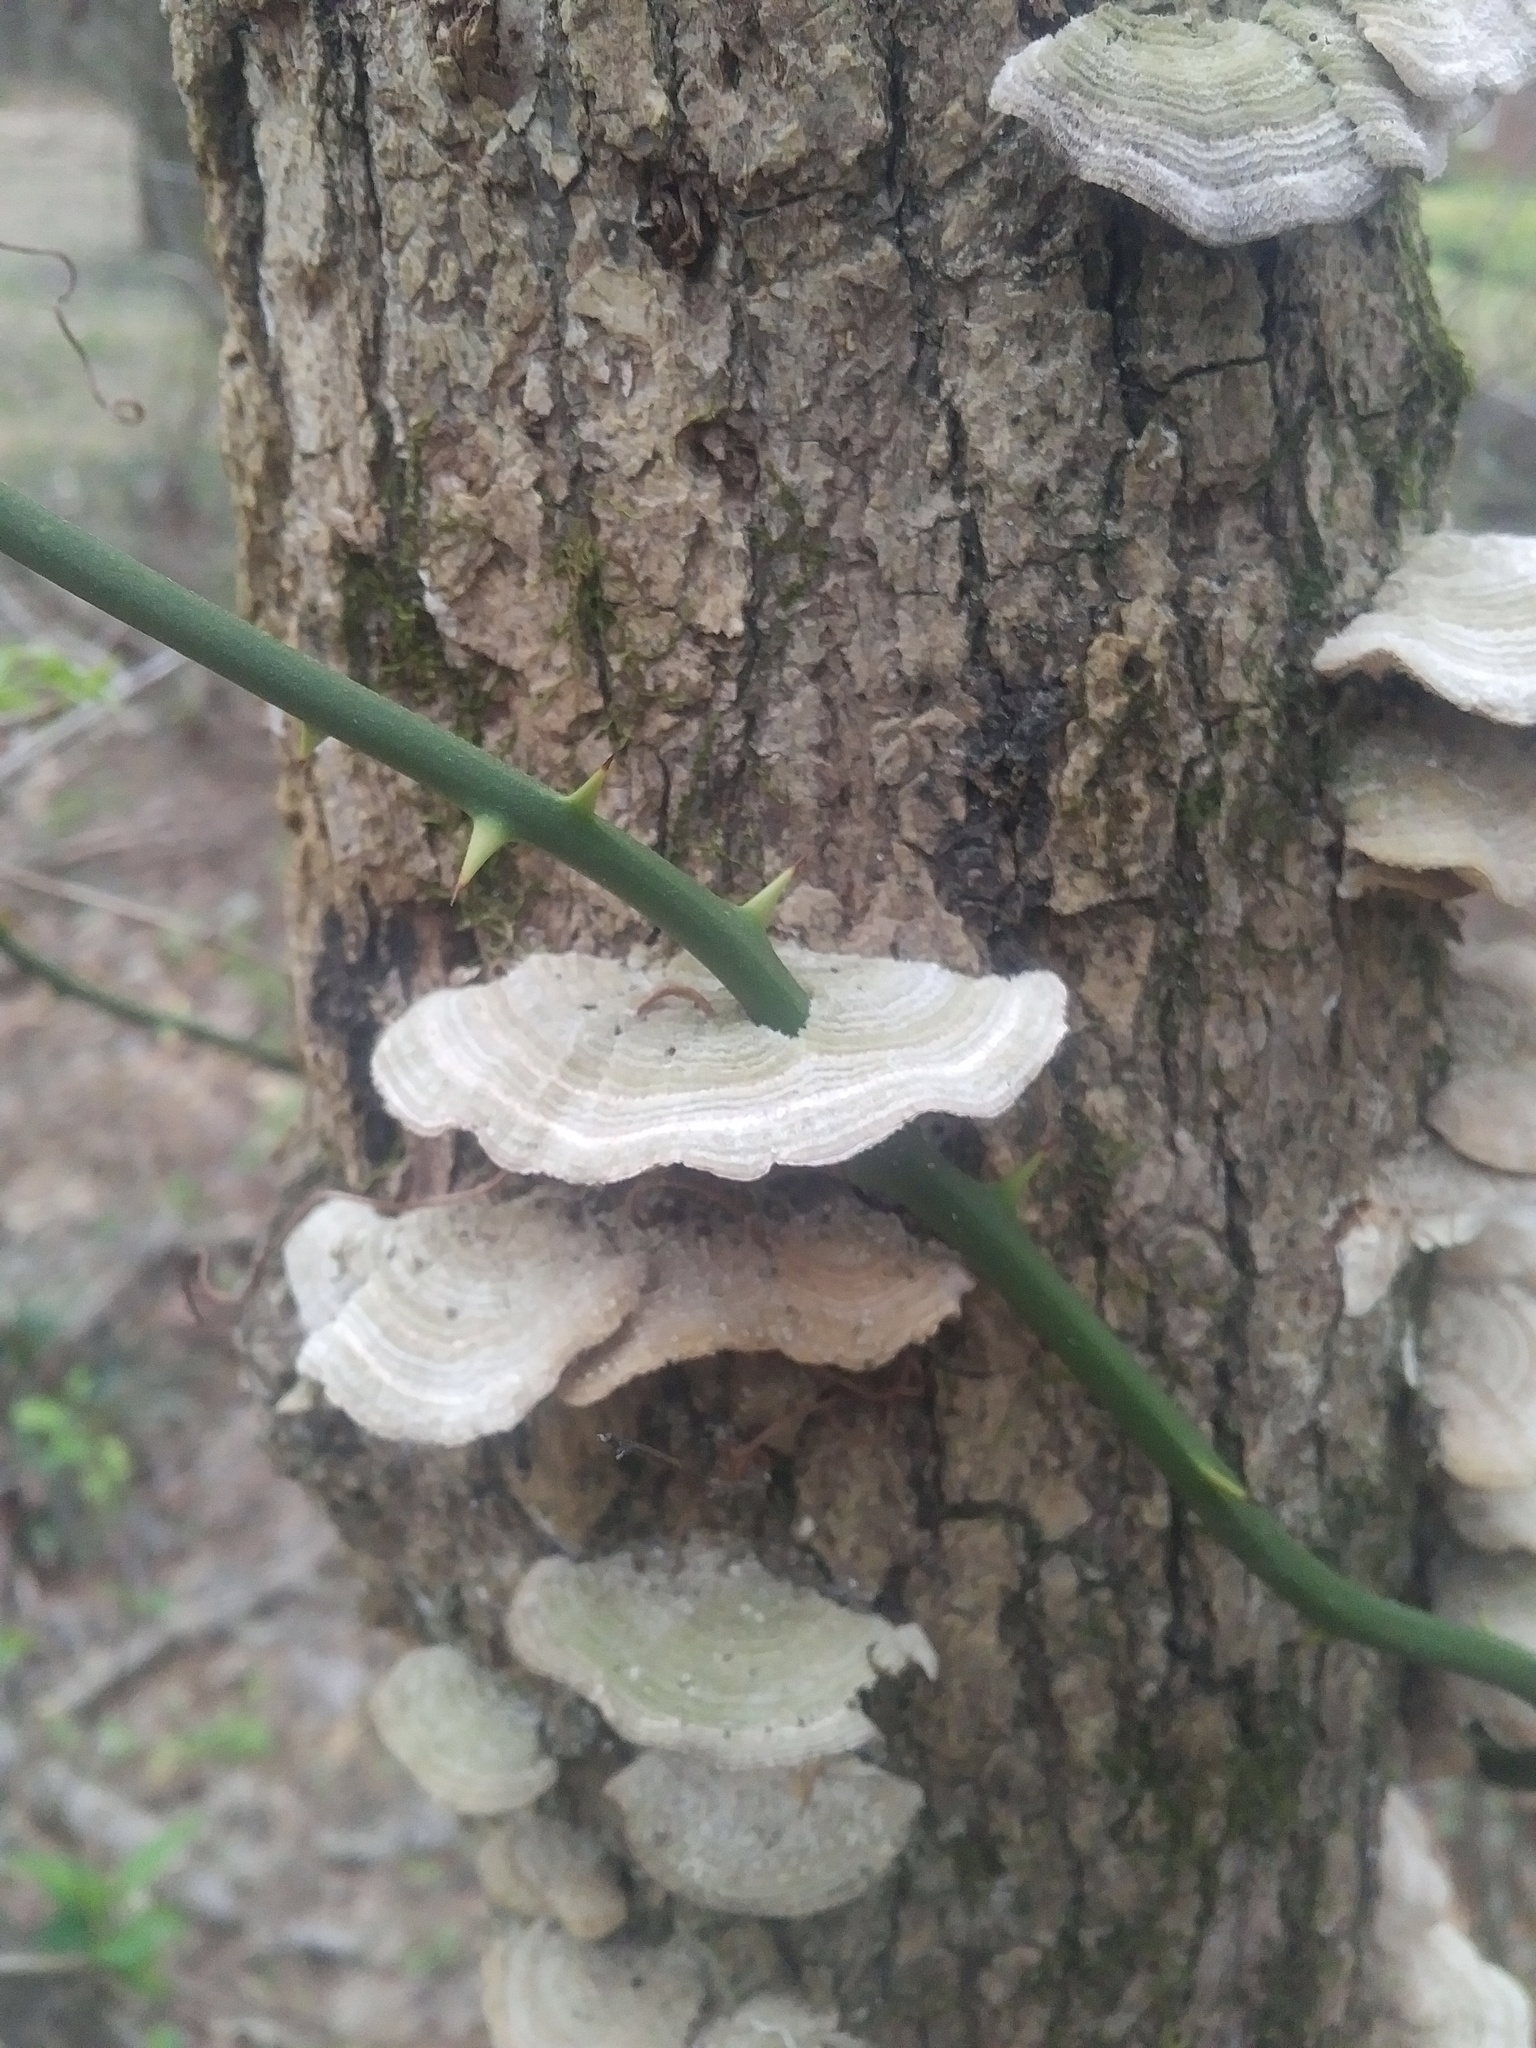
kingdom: Fungi
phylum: Basidiomycota
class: Agaricomycetes
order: Polyporales
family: Polyporaceae
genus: Lenzites
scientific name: Lenzites betulinus
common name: Birch mazegill
